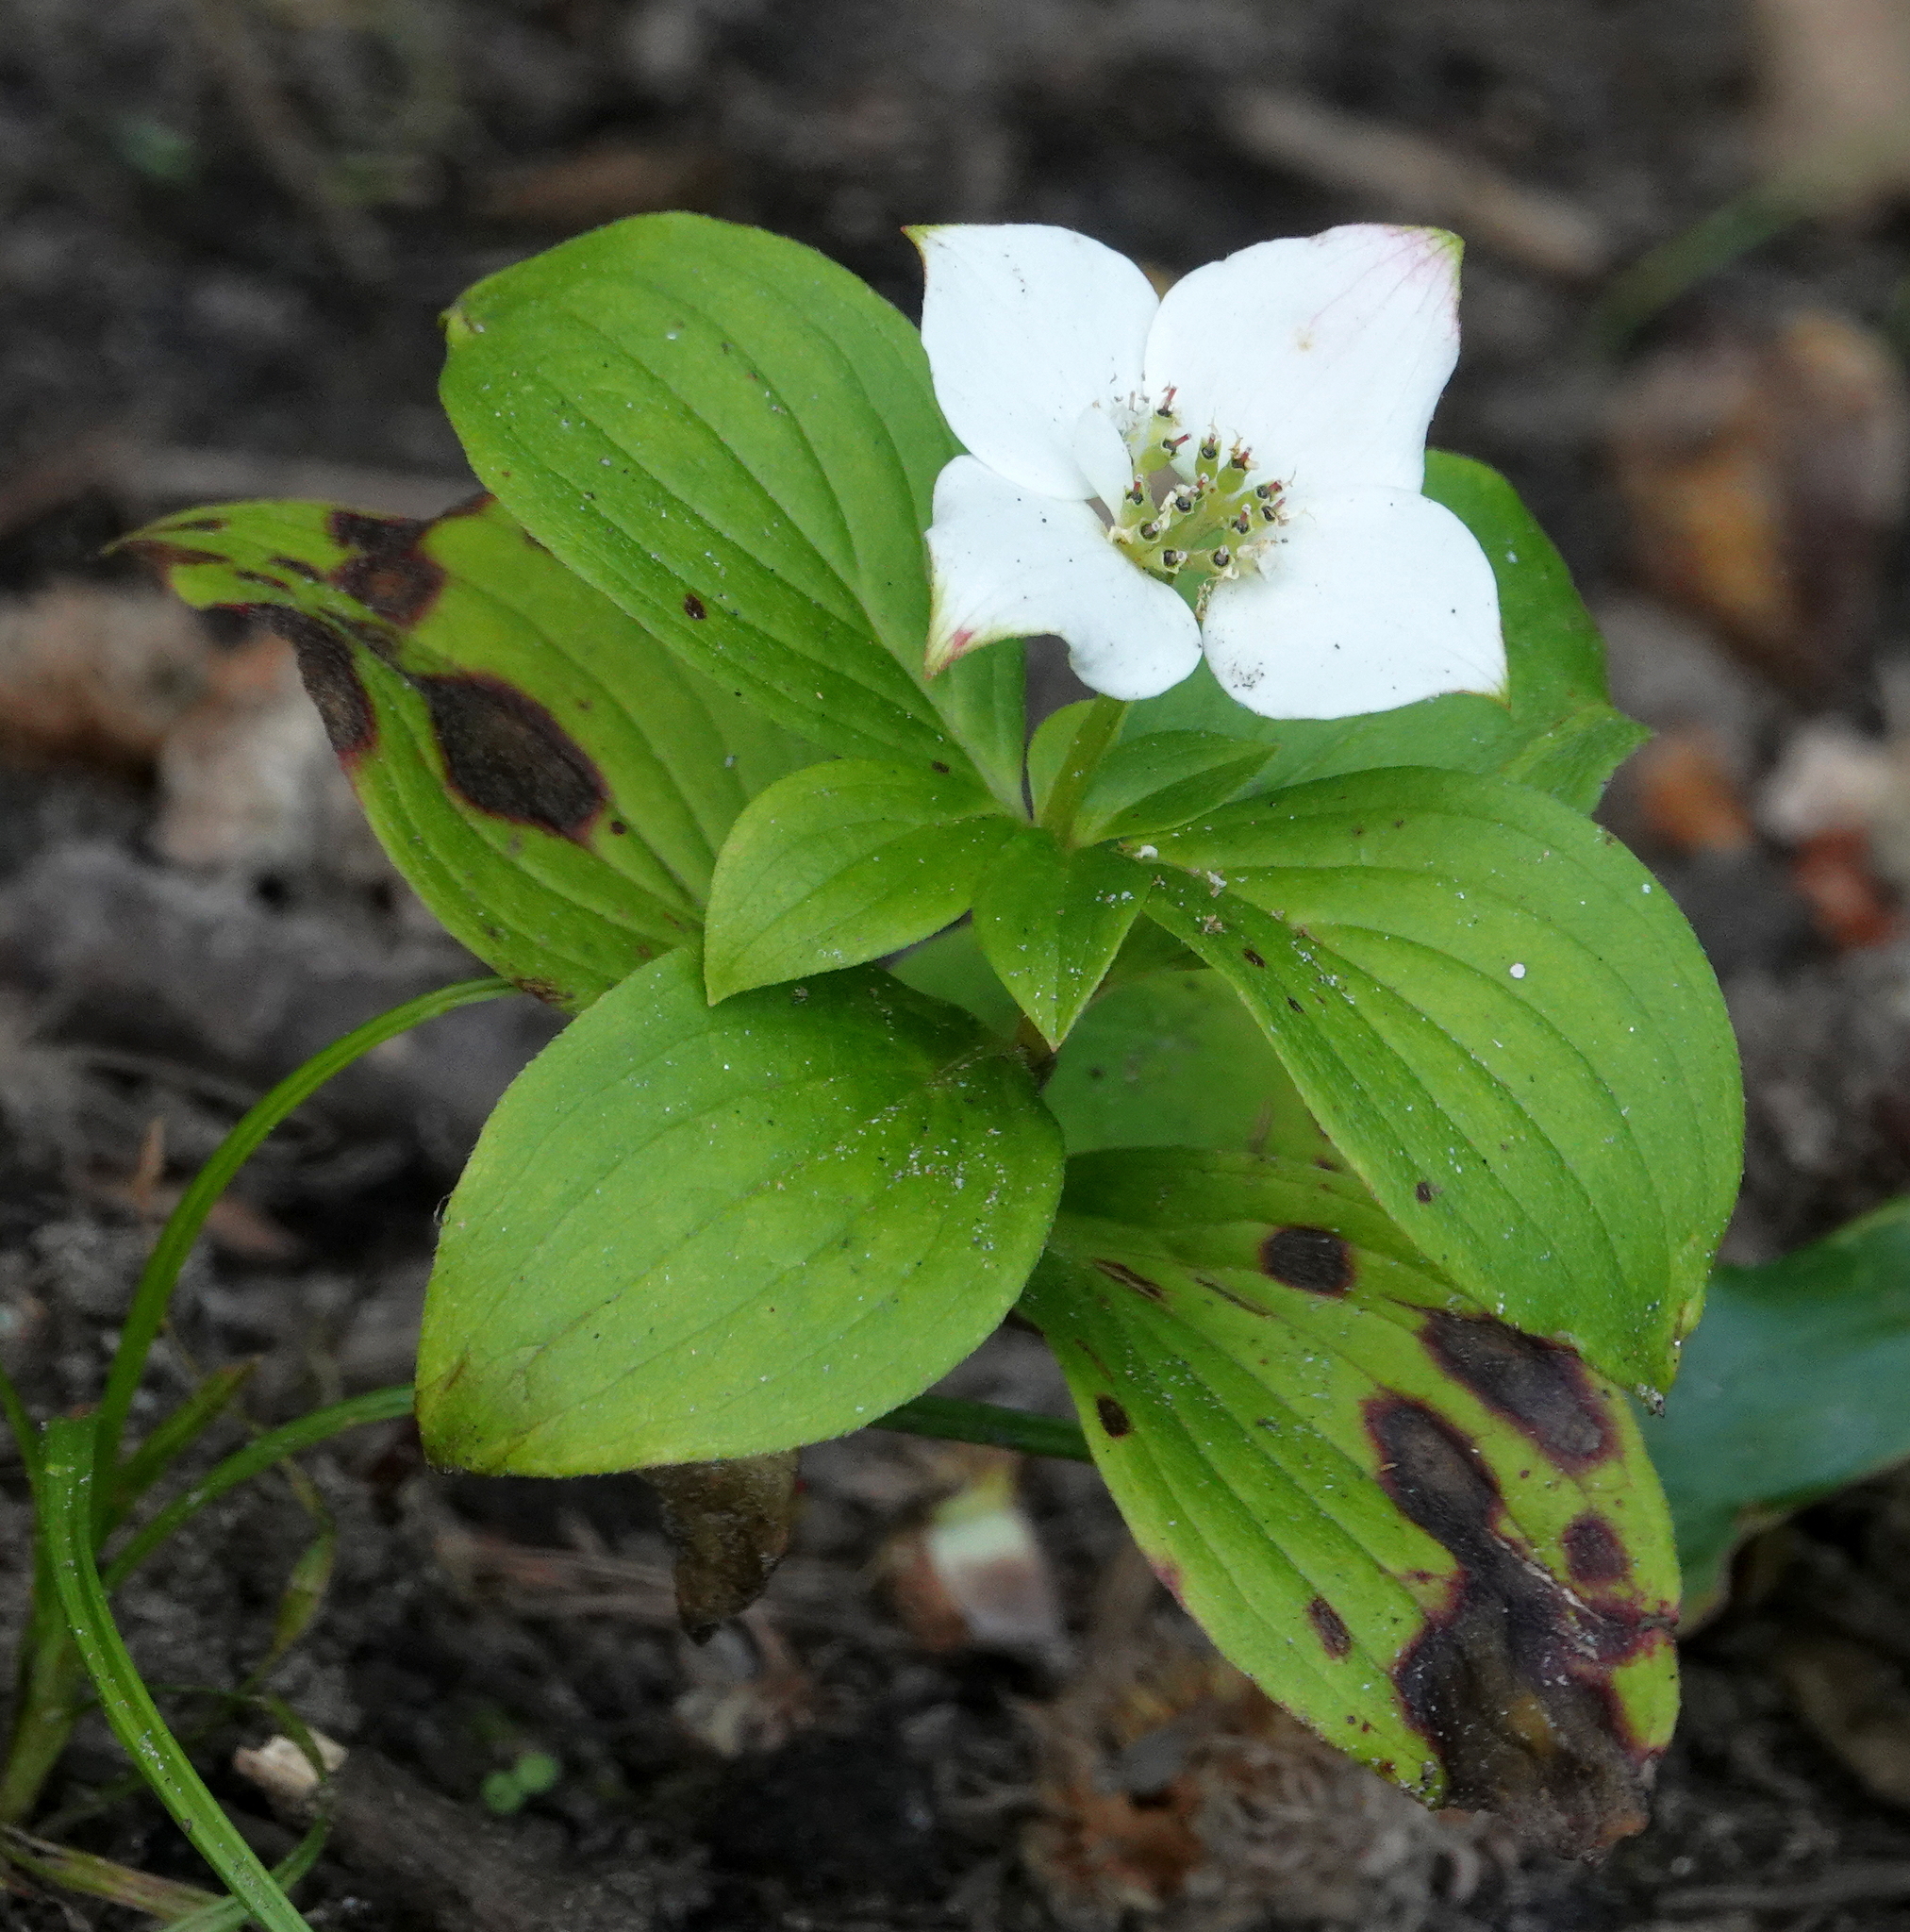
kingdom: Plantae
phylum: Tracheophyta
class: Magnoliopsida
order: Cornales
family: Cornaceae
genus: Cornus
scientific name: Cornus canadensis
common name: Creeping dogwood
